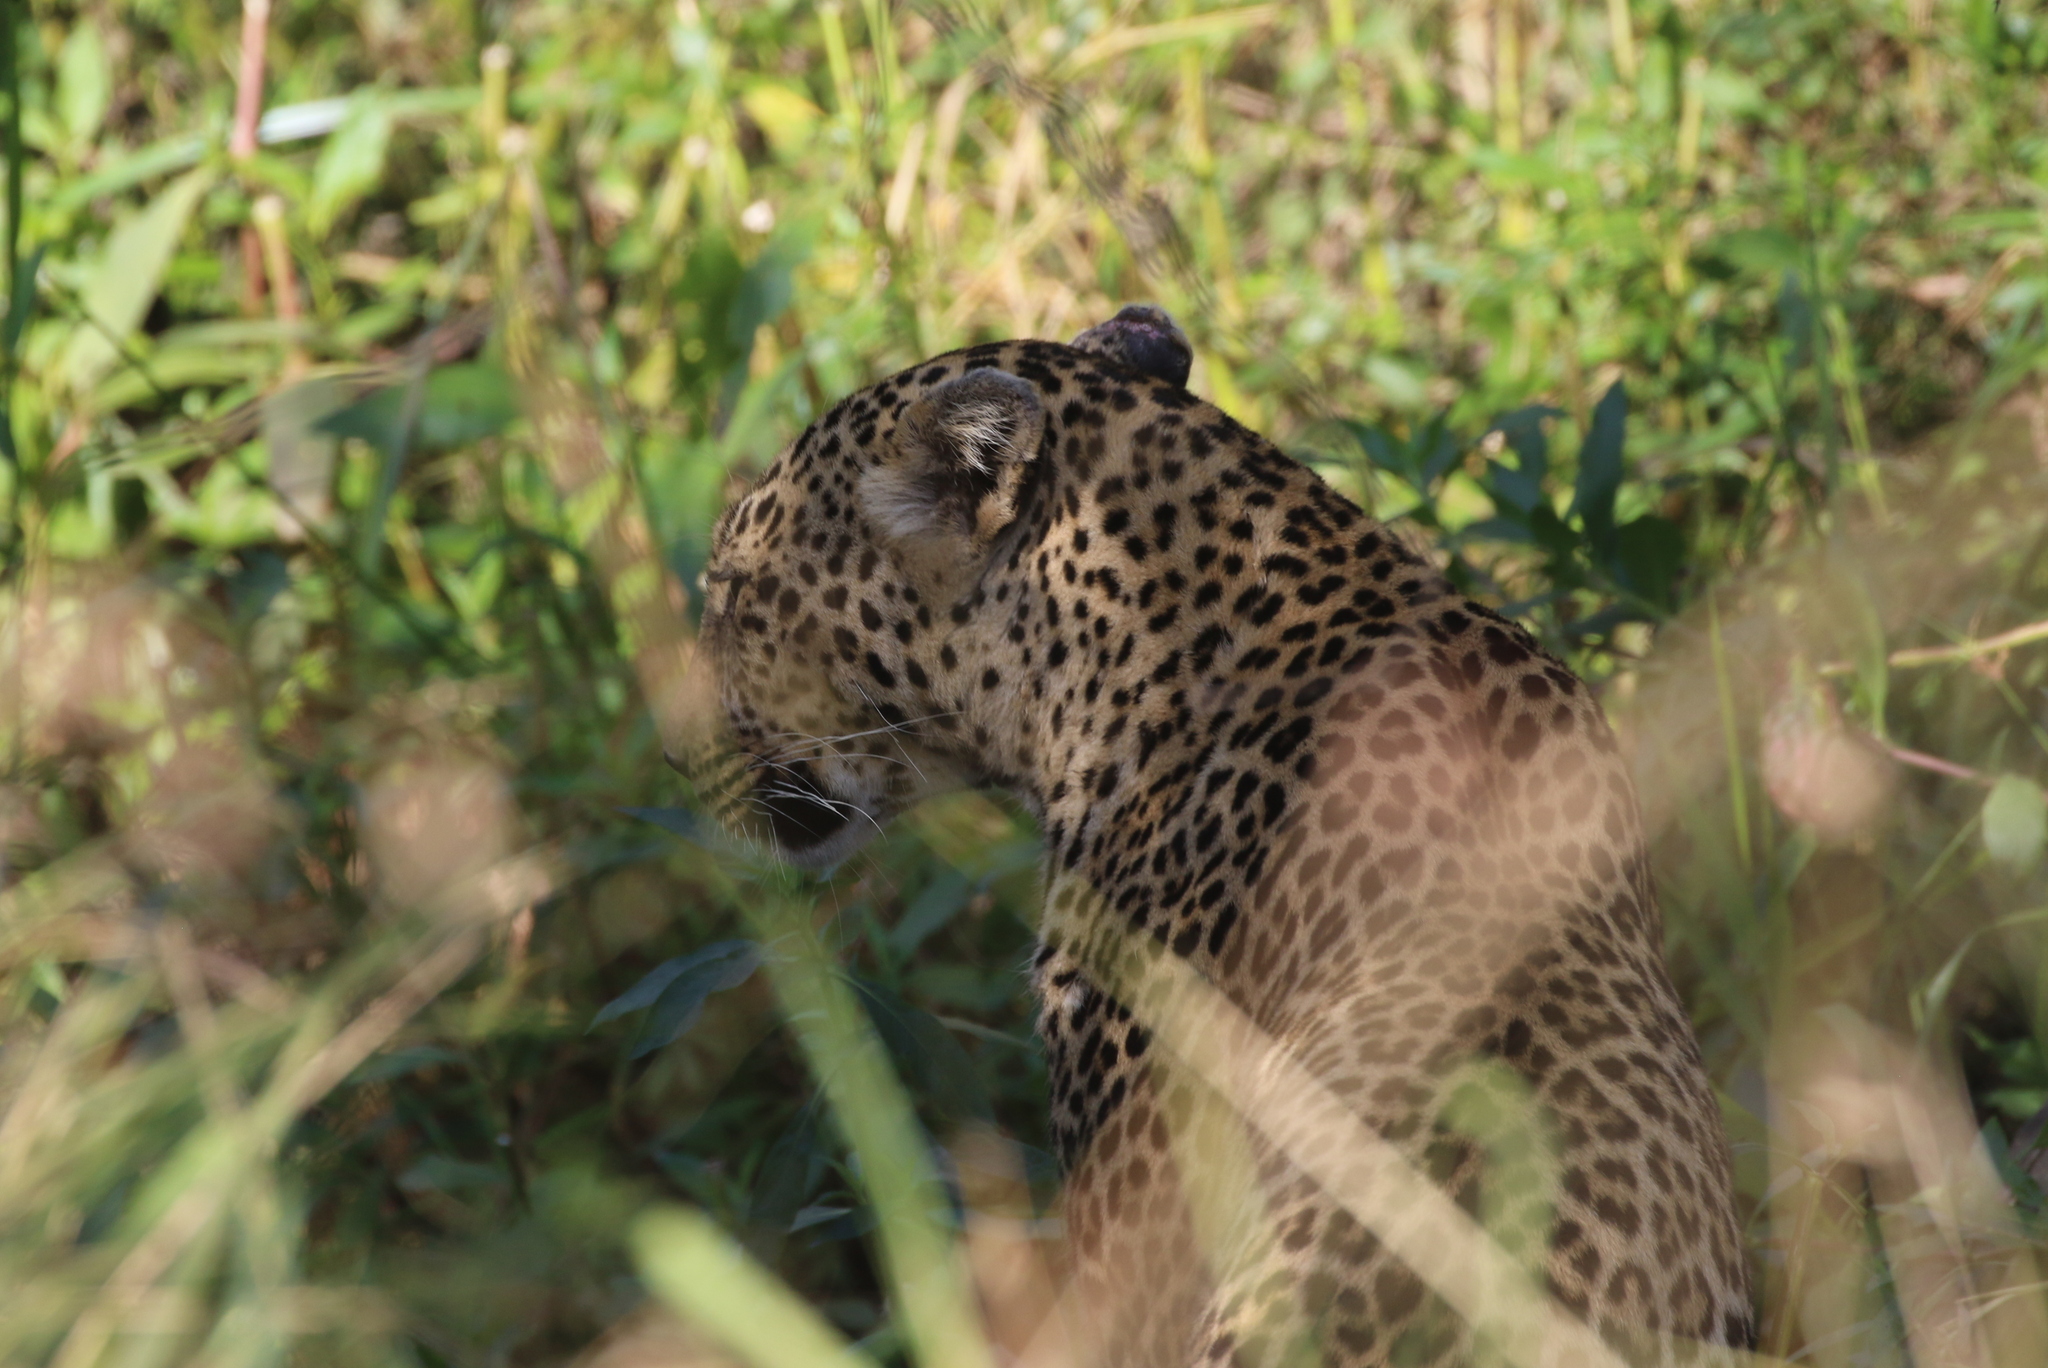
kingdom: Animalia
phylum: Chordata
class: Mammalia
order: Carnivora
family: Felidae
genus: Panthera
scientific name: Panthera pardus
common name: Leopard
